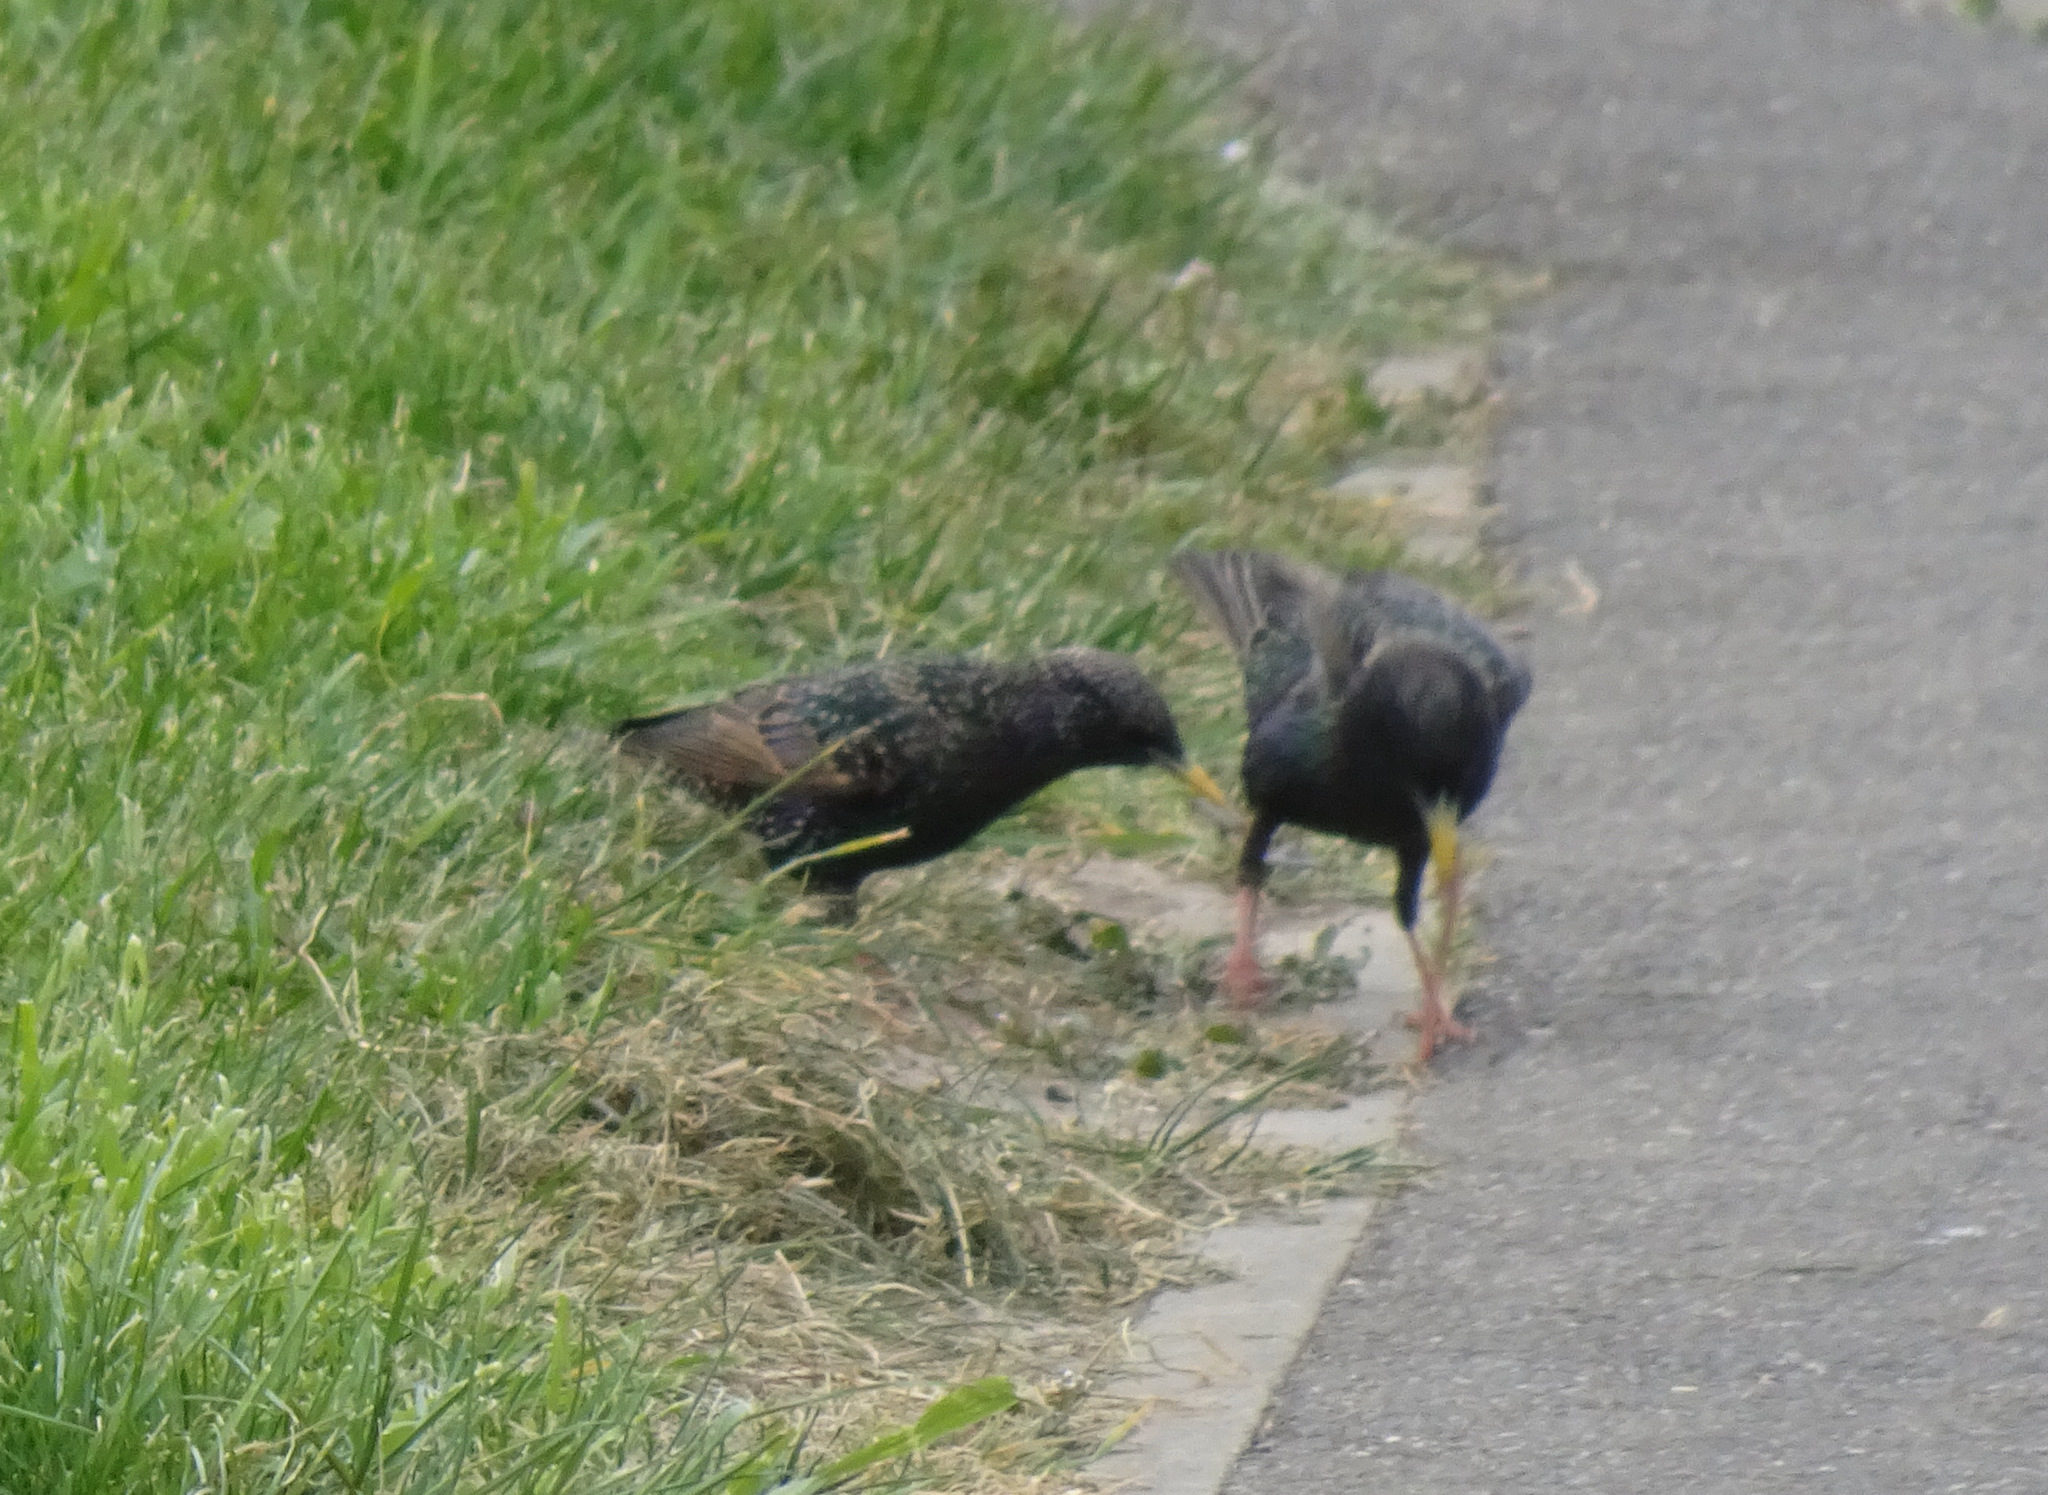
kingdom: Animalia
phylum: Chordata
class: Aves
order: Passeriformes
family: Sturnidae
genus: Sturnus
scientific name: Sturnus vulgaris
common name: Common starling
